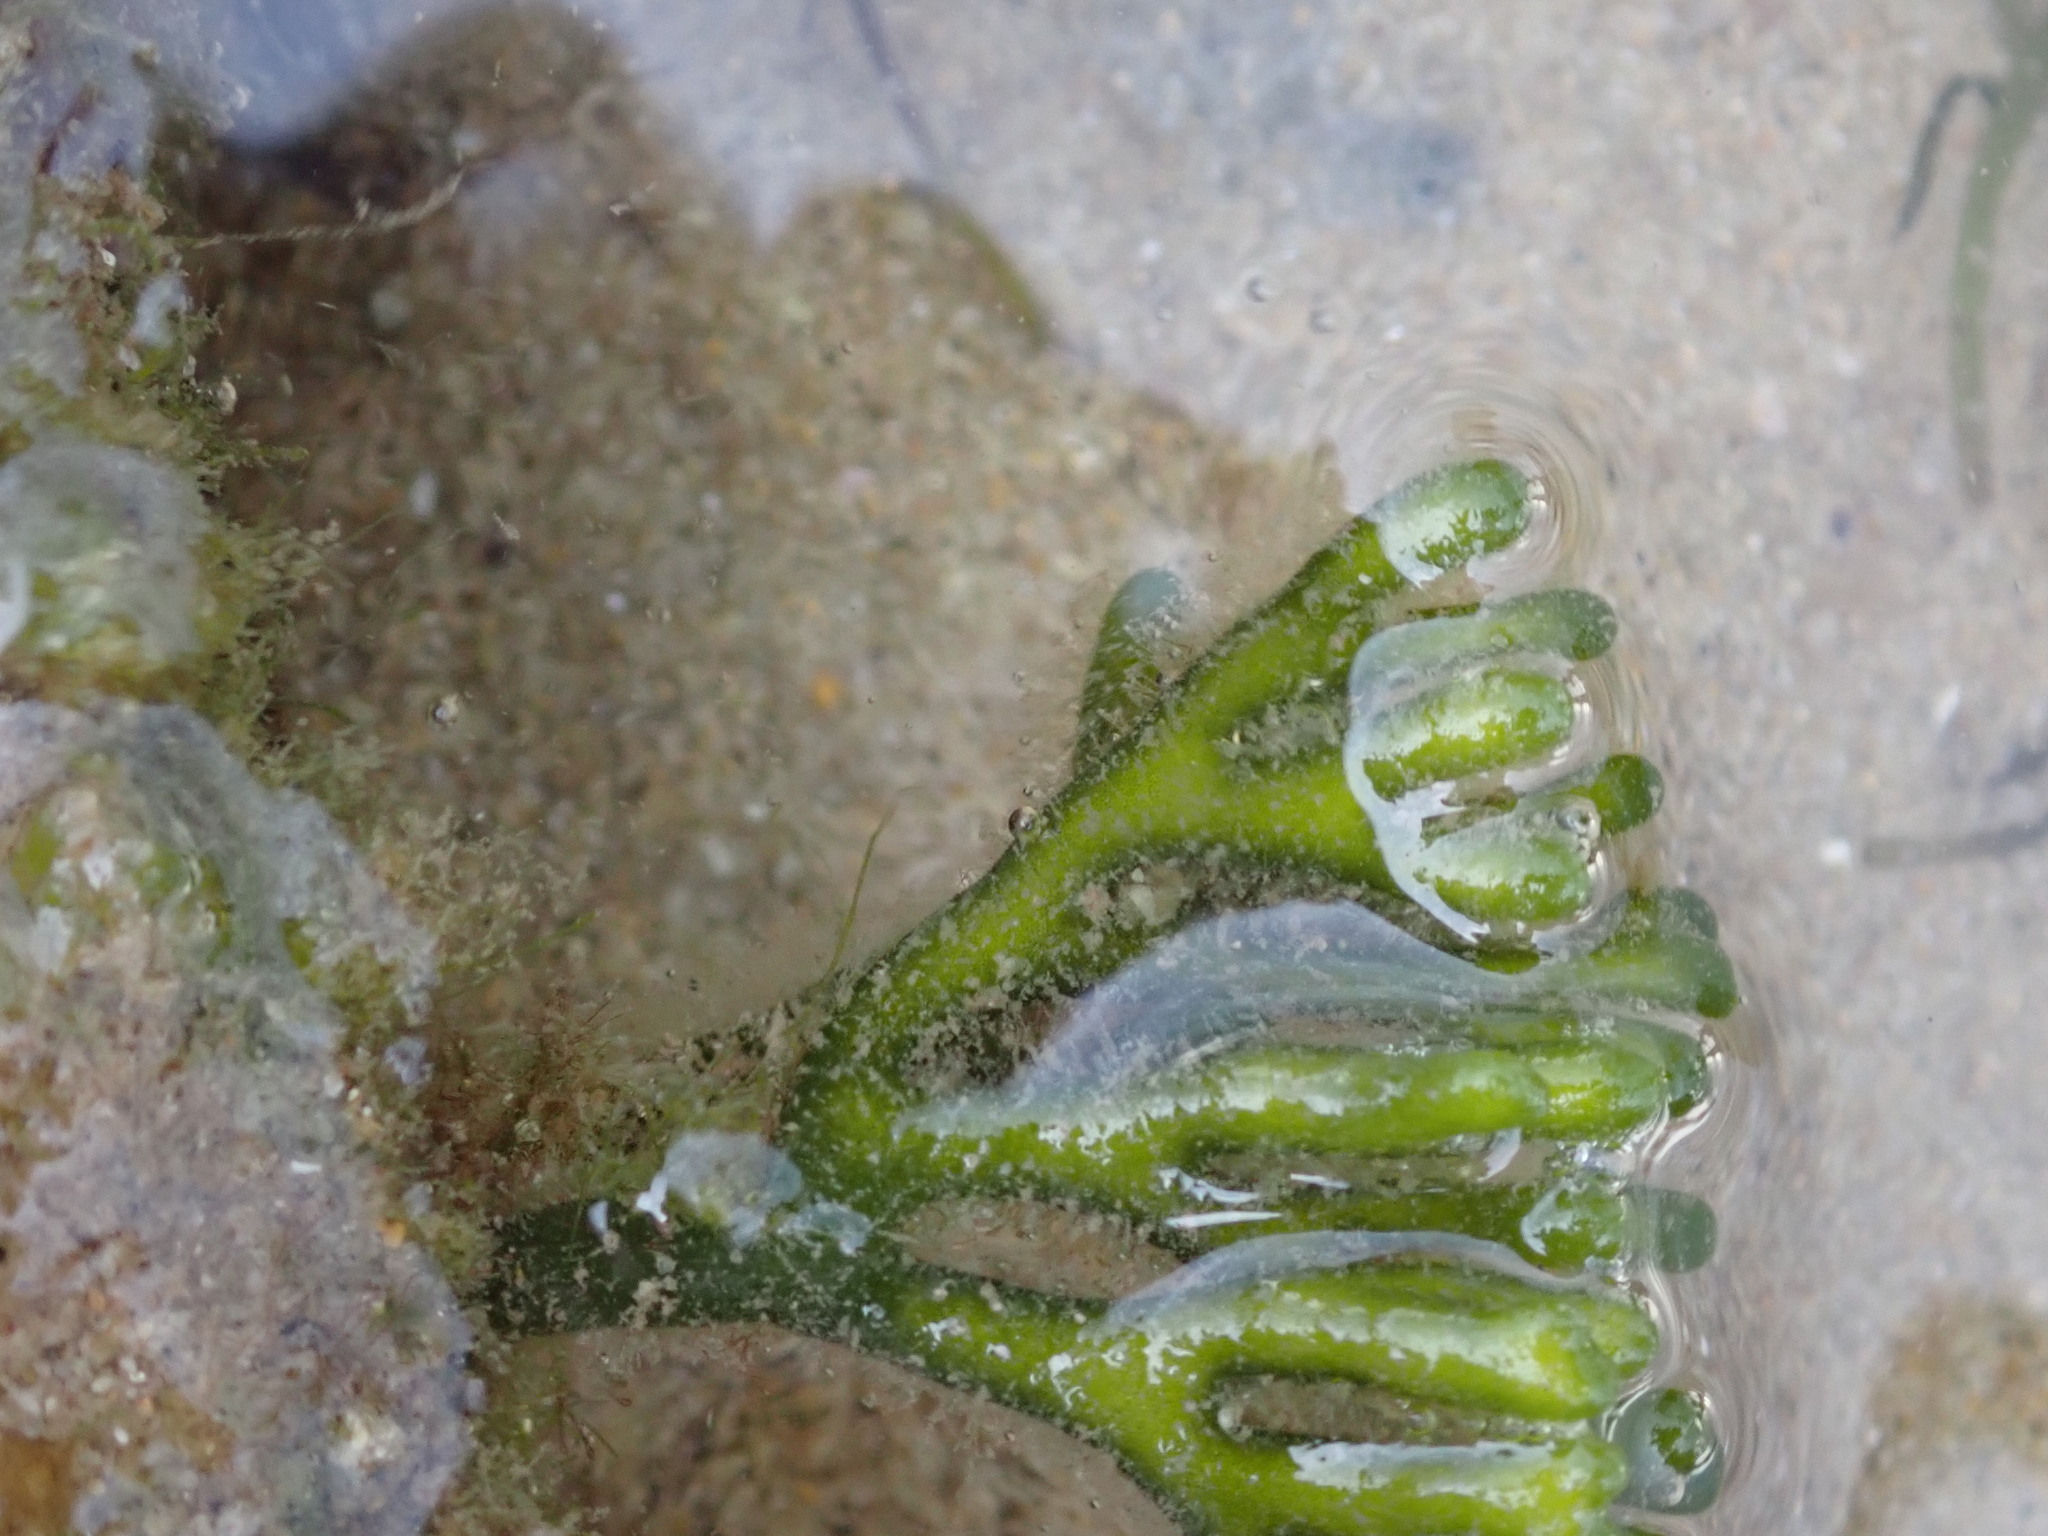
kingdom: Plantae
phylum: Chlorophyta
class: Ulvophyceae
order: Bryopsidales
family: Codiaceae
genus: Codium
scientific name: Codium fragile
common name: Dead man's fingers
